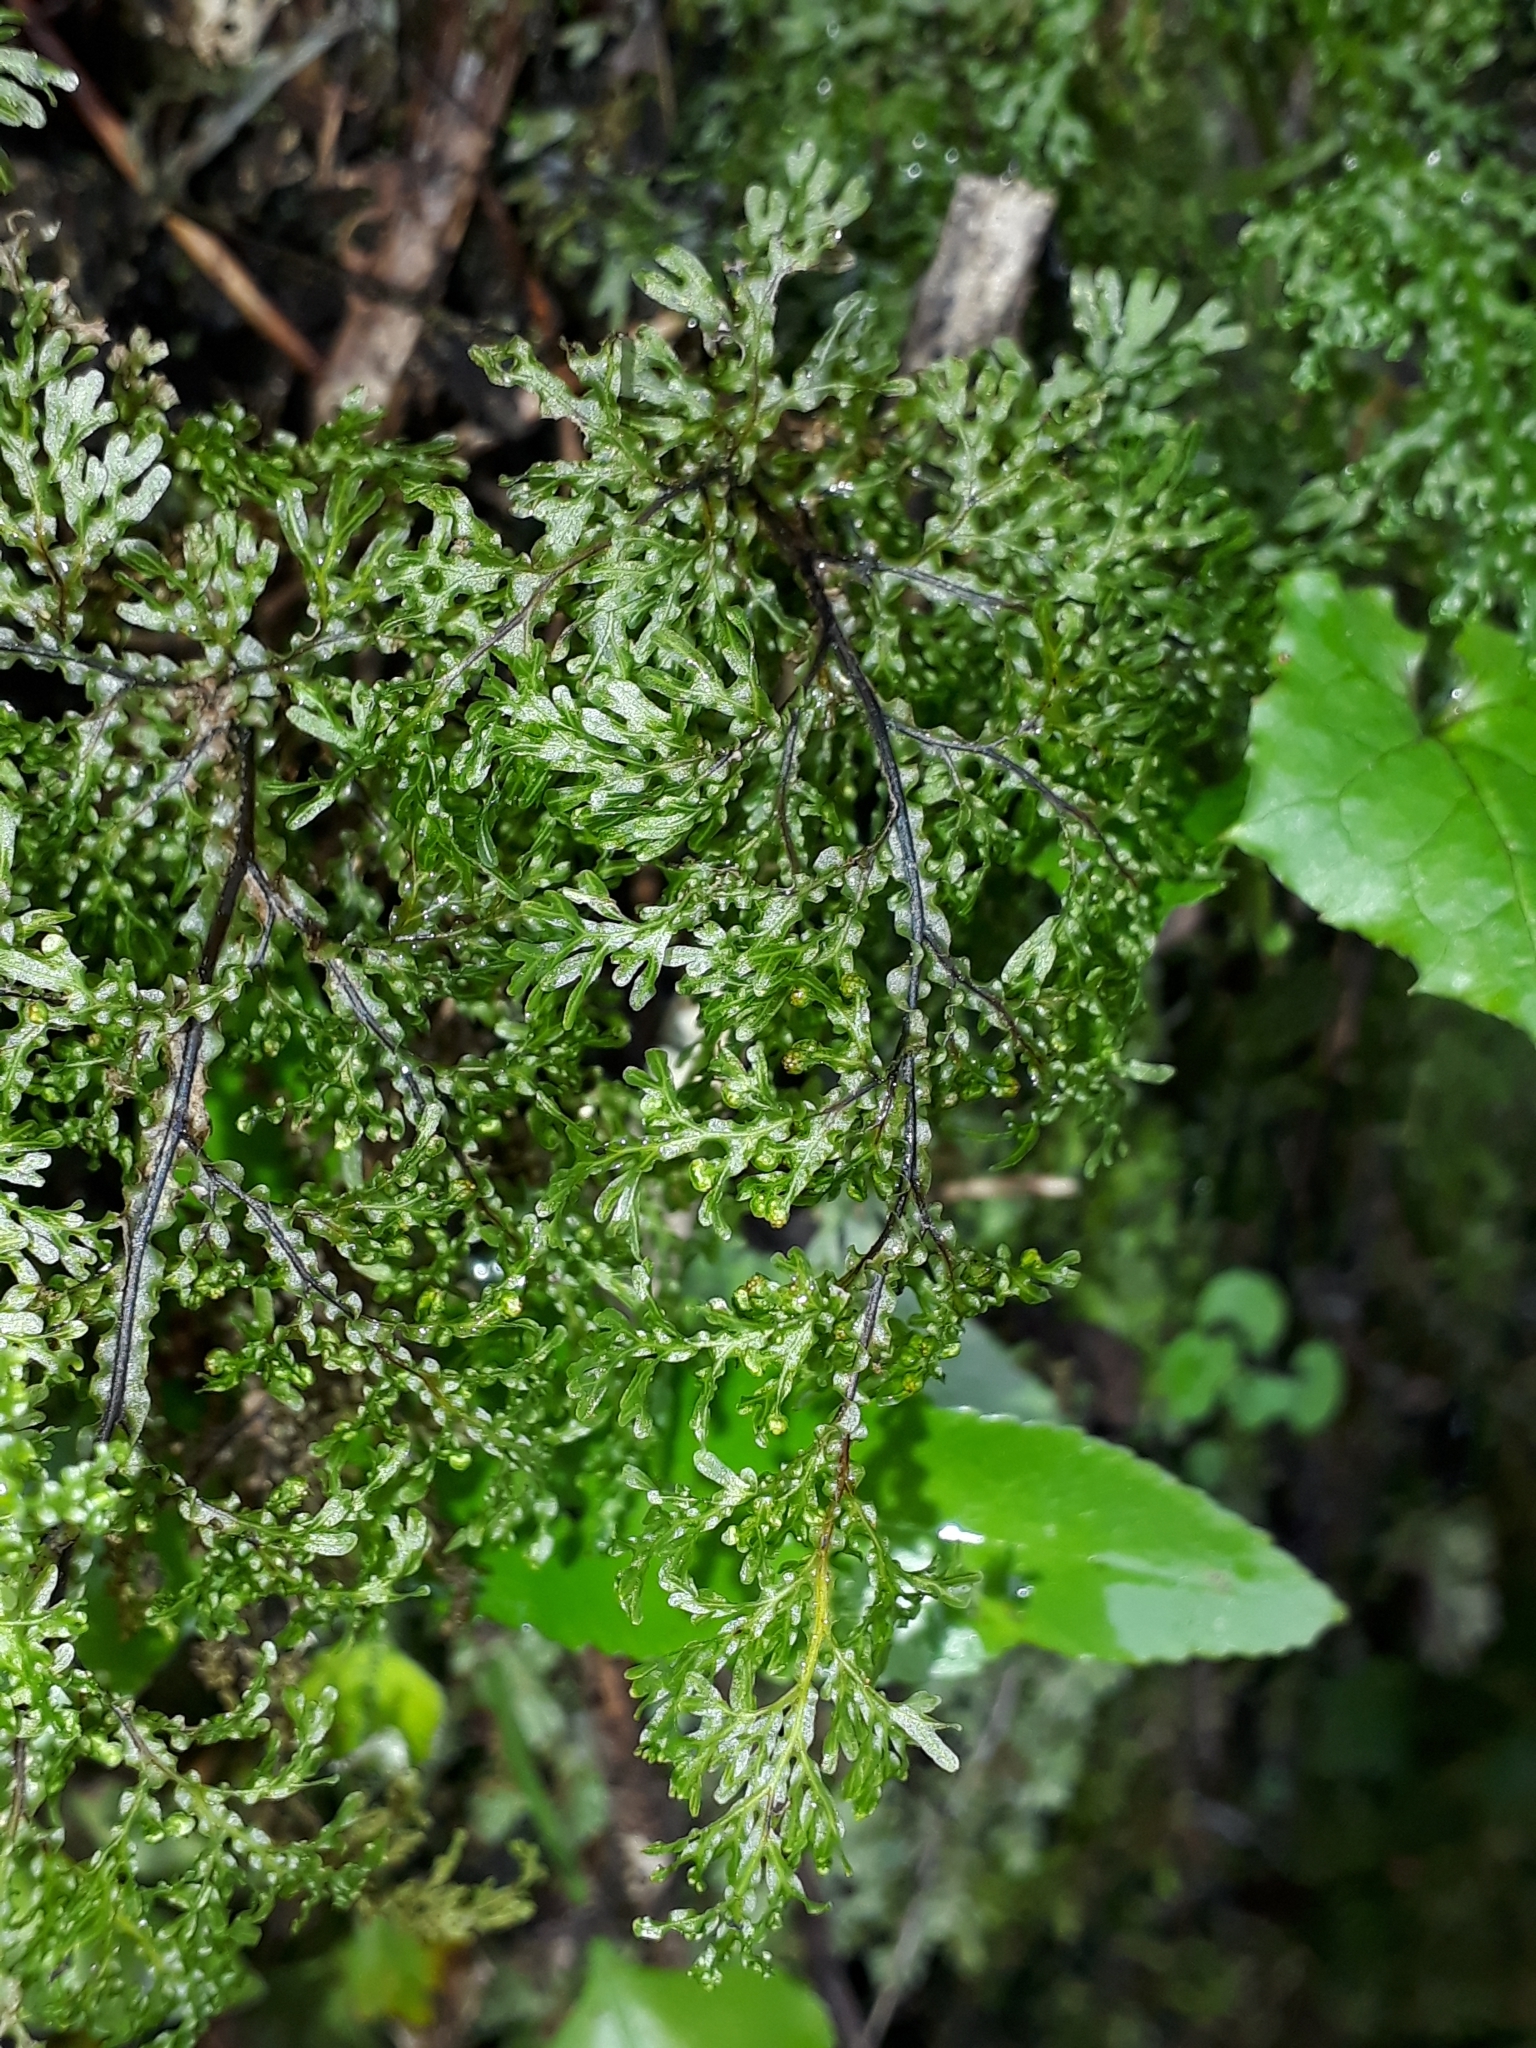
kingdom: Plantae
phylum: Tracheophyta
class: Polypodiopsida
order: Hymenophyllales
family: Hymenophyllaceae
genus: Hymenophyllum
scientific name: Hymenophyllum flexuosum
